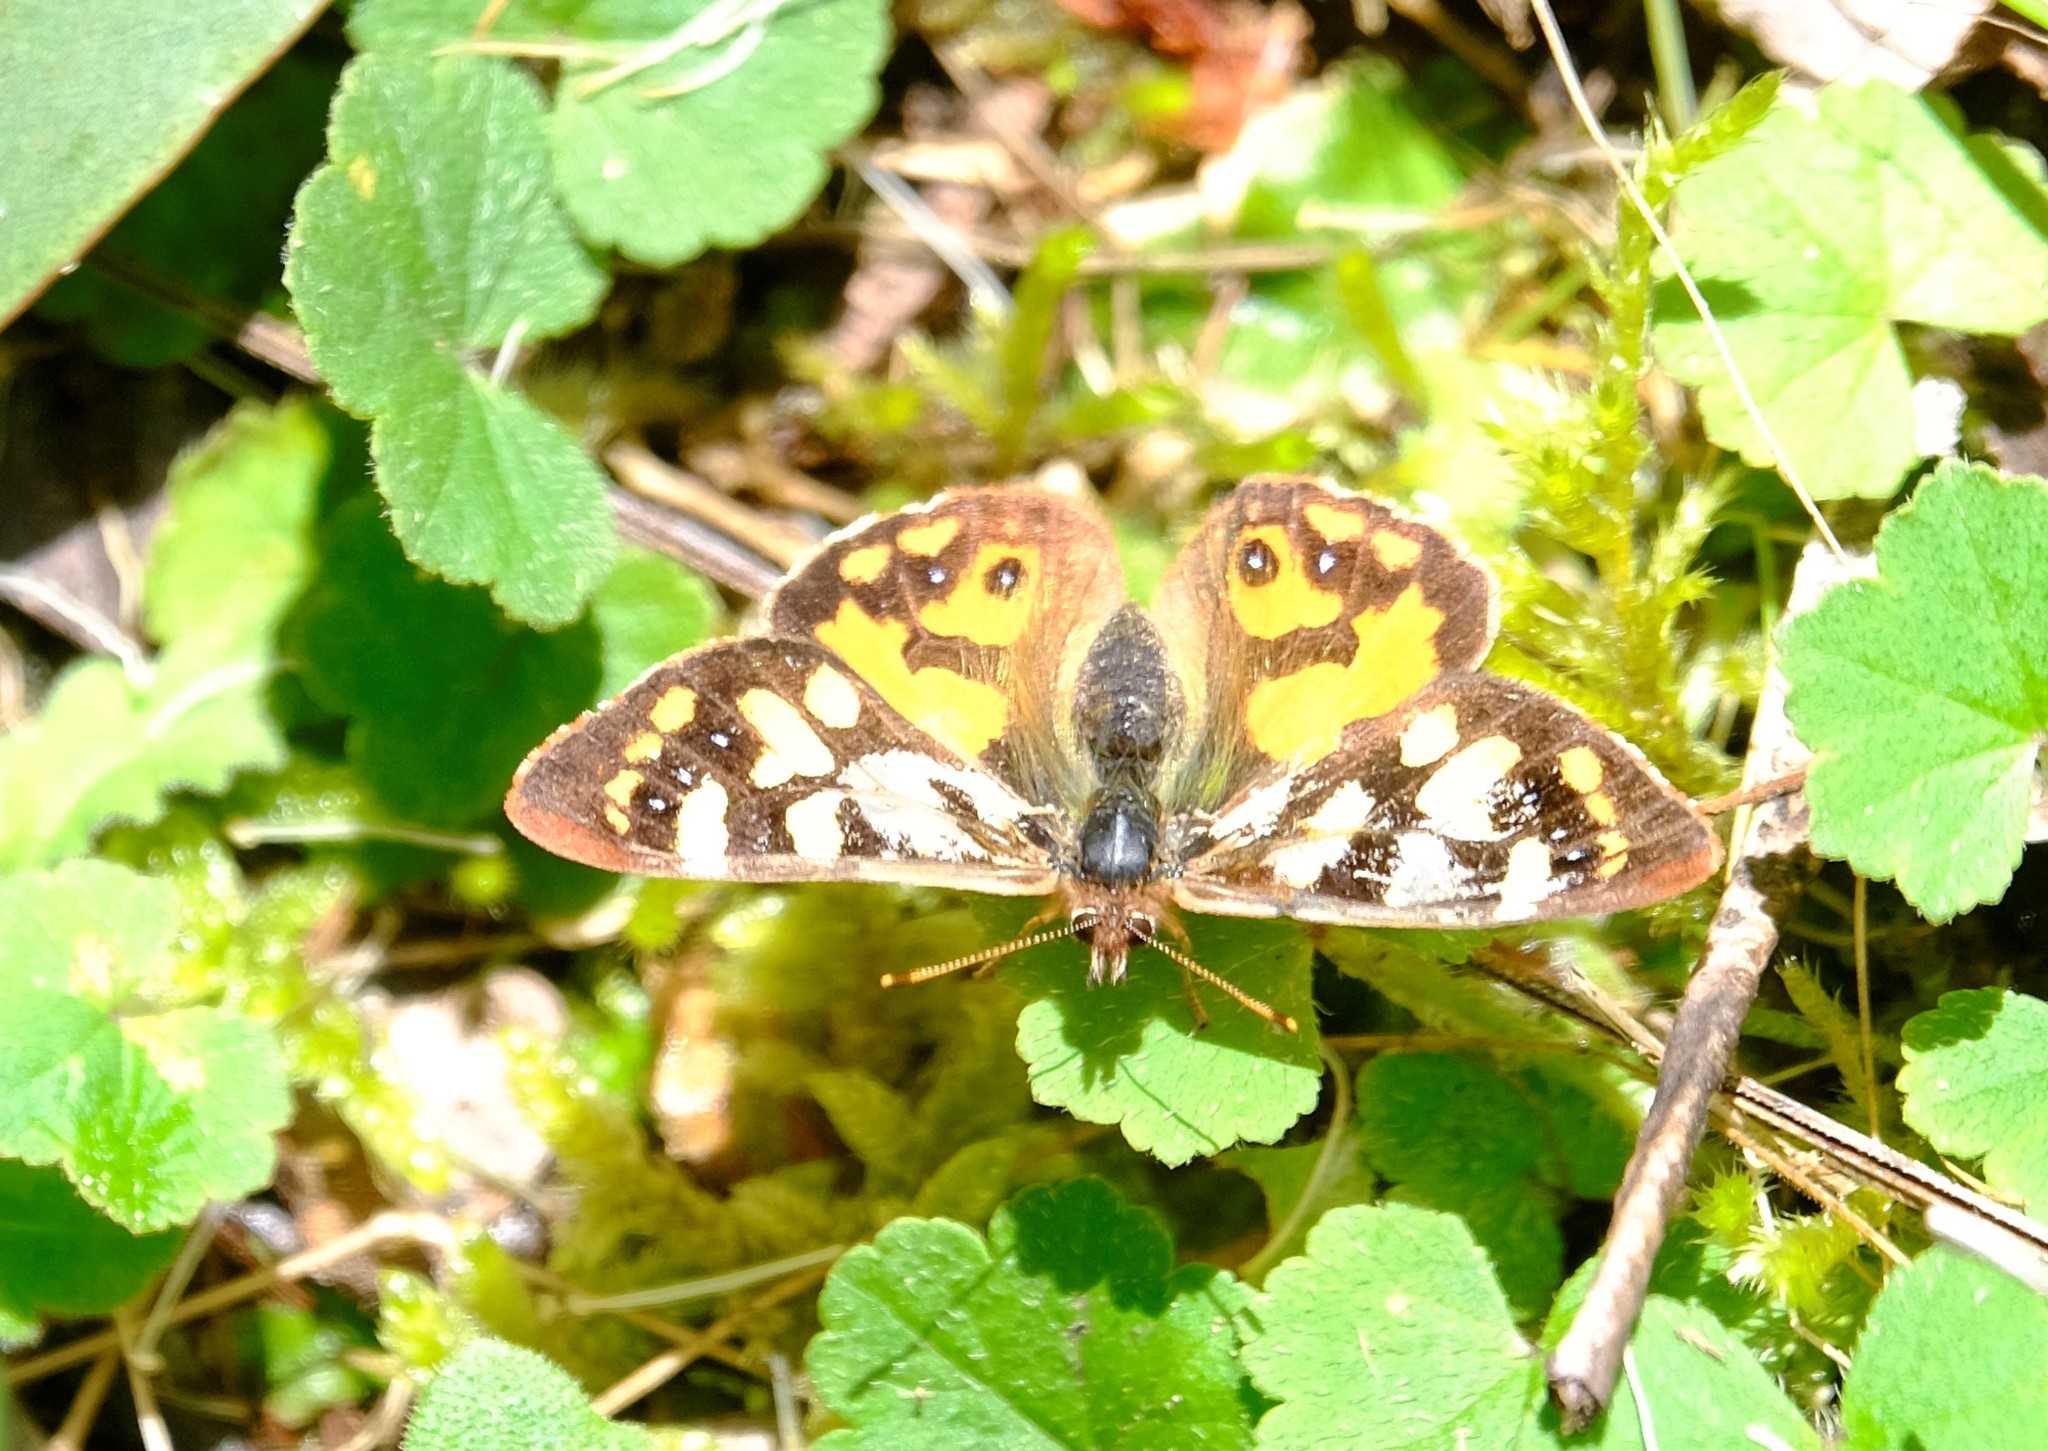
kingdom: Animalia
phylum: Arthropoda
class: Insecta
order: Lepidoptera
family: Nymphalidae
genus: Argynnina
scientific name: Argynnina cyrila
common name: Cyril's brown
